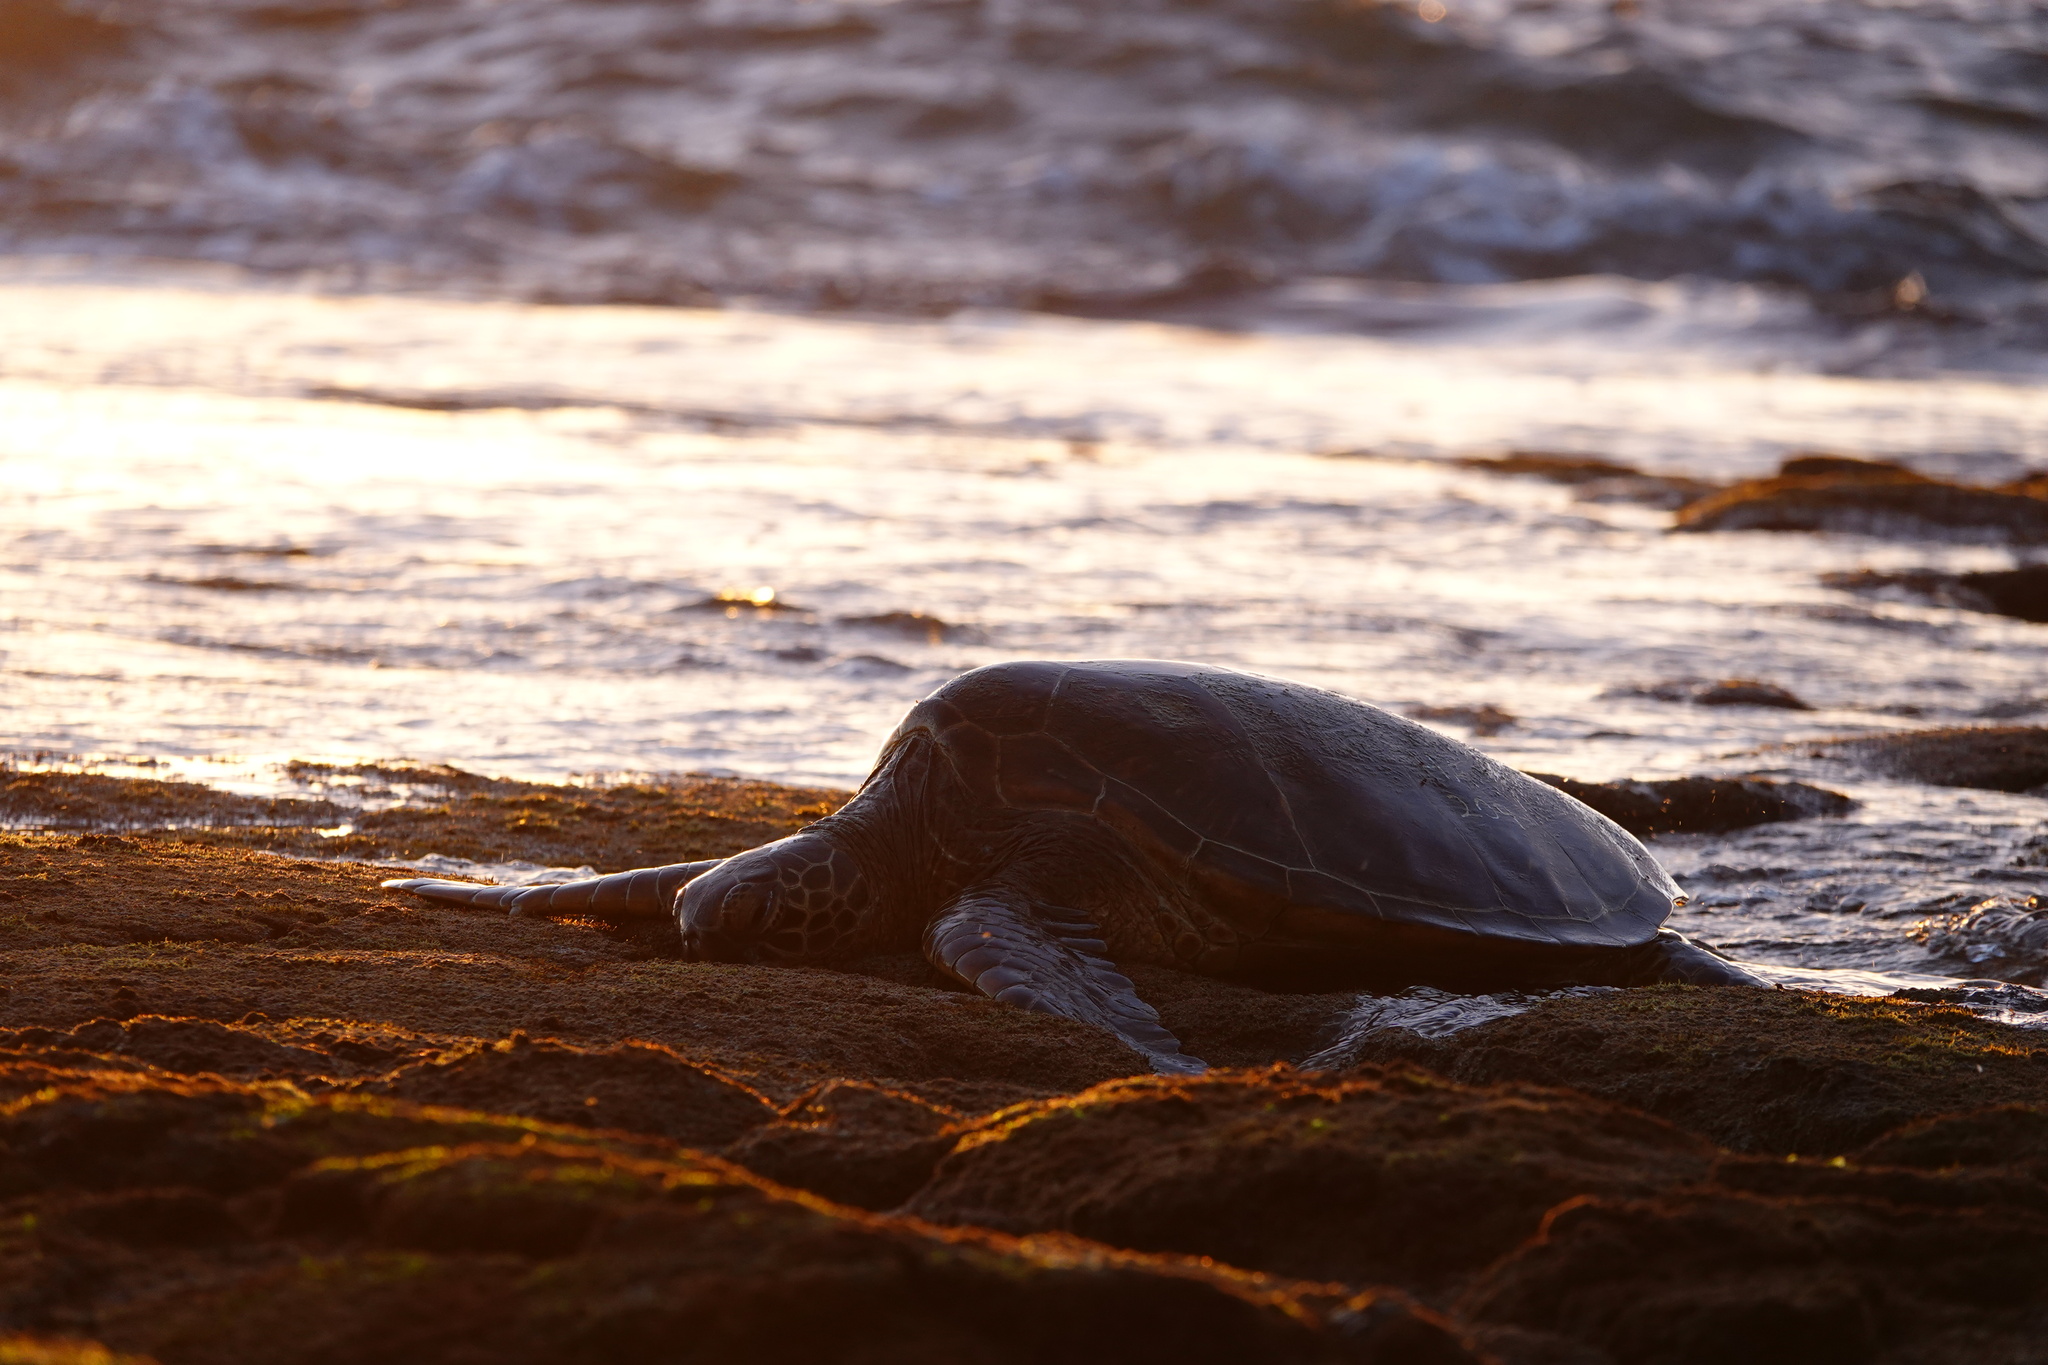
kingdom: Animalia
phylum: Chordata
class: Testudines
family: Cheloniidae
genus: Chelonia
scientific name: Chelonia mydas
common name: Green turtle
